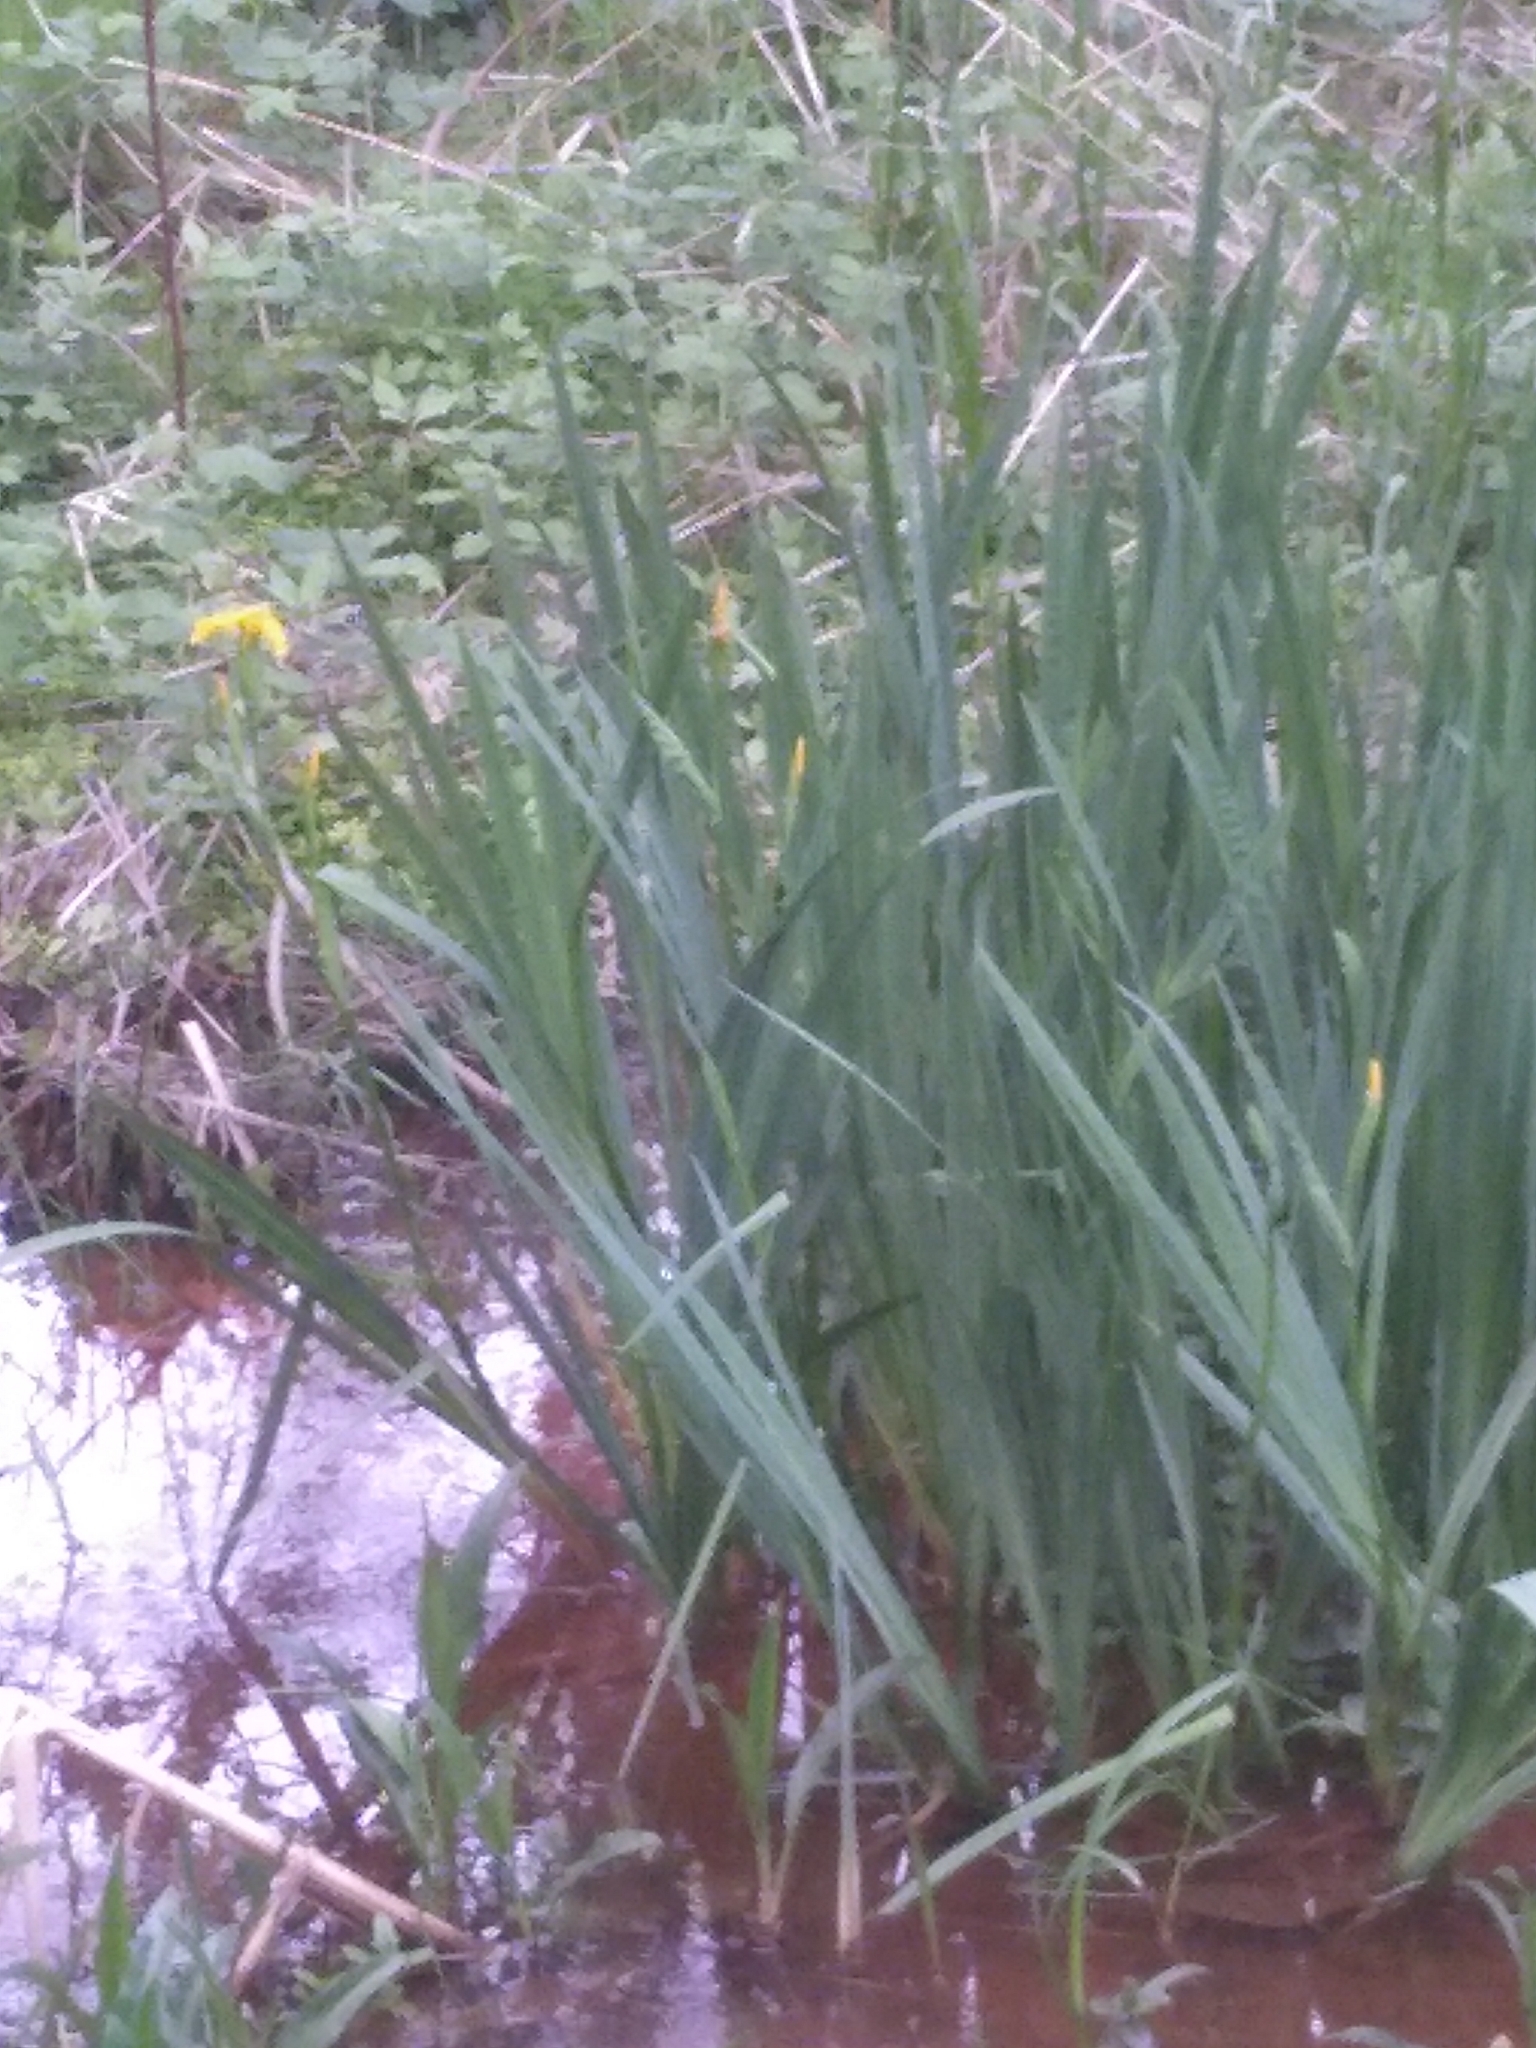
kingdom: Plantae
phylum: Tracheophyta
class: Liliopsida
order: Asparagales
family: Iridaceae
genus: Iris
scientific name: Iris pseudacorus
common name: Yellow flag
